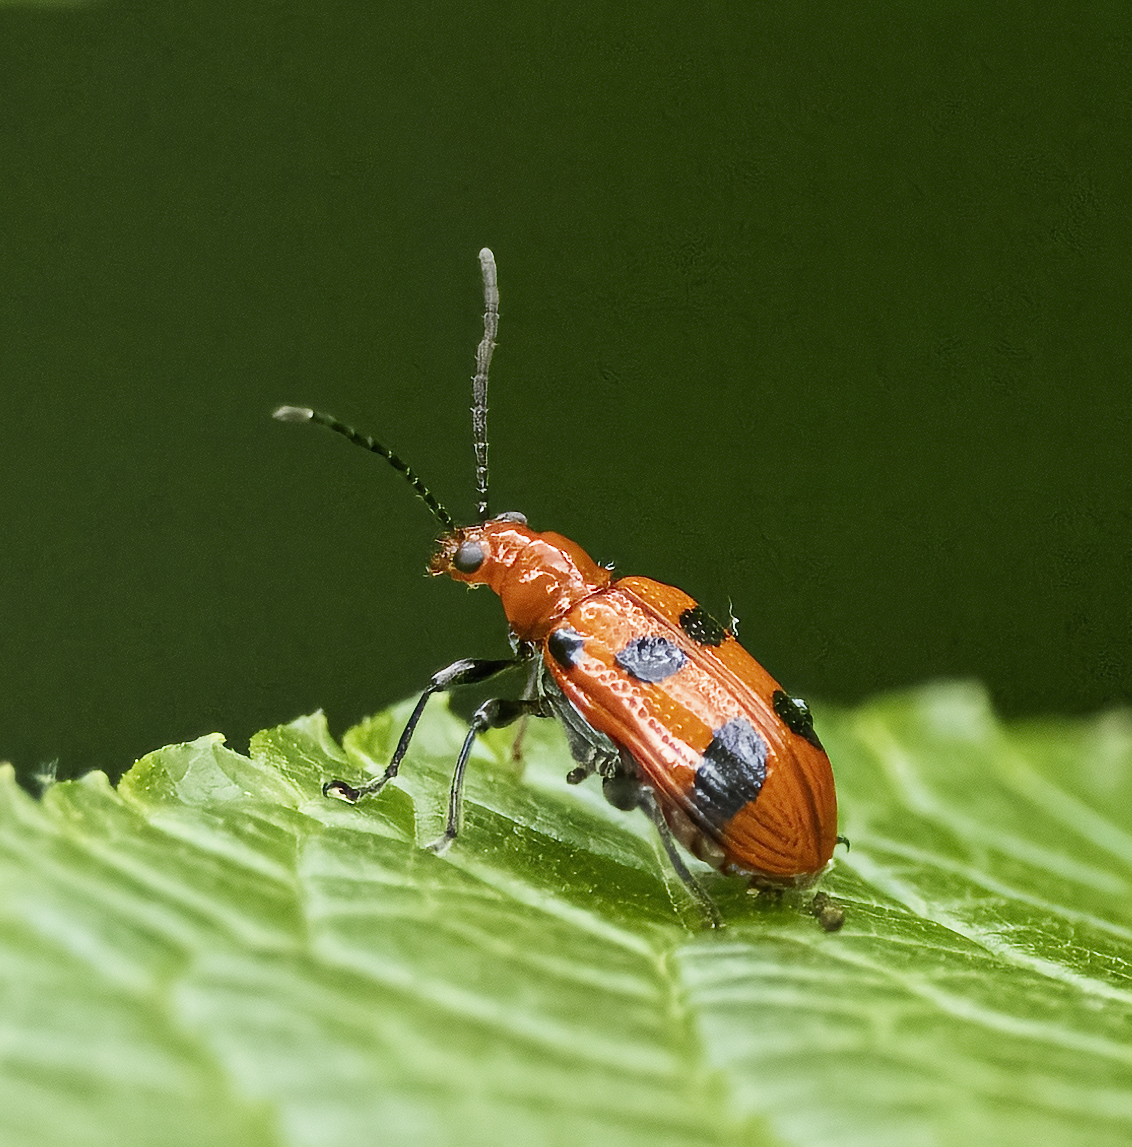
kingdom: Animalia
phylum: Arthropoda
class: Insecta
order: Coleoptera
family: Chrysomelidae
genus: Neolema
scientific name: Neolema sexpunctata
